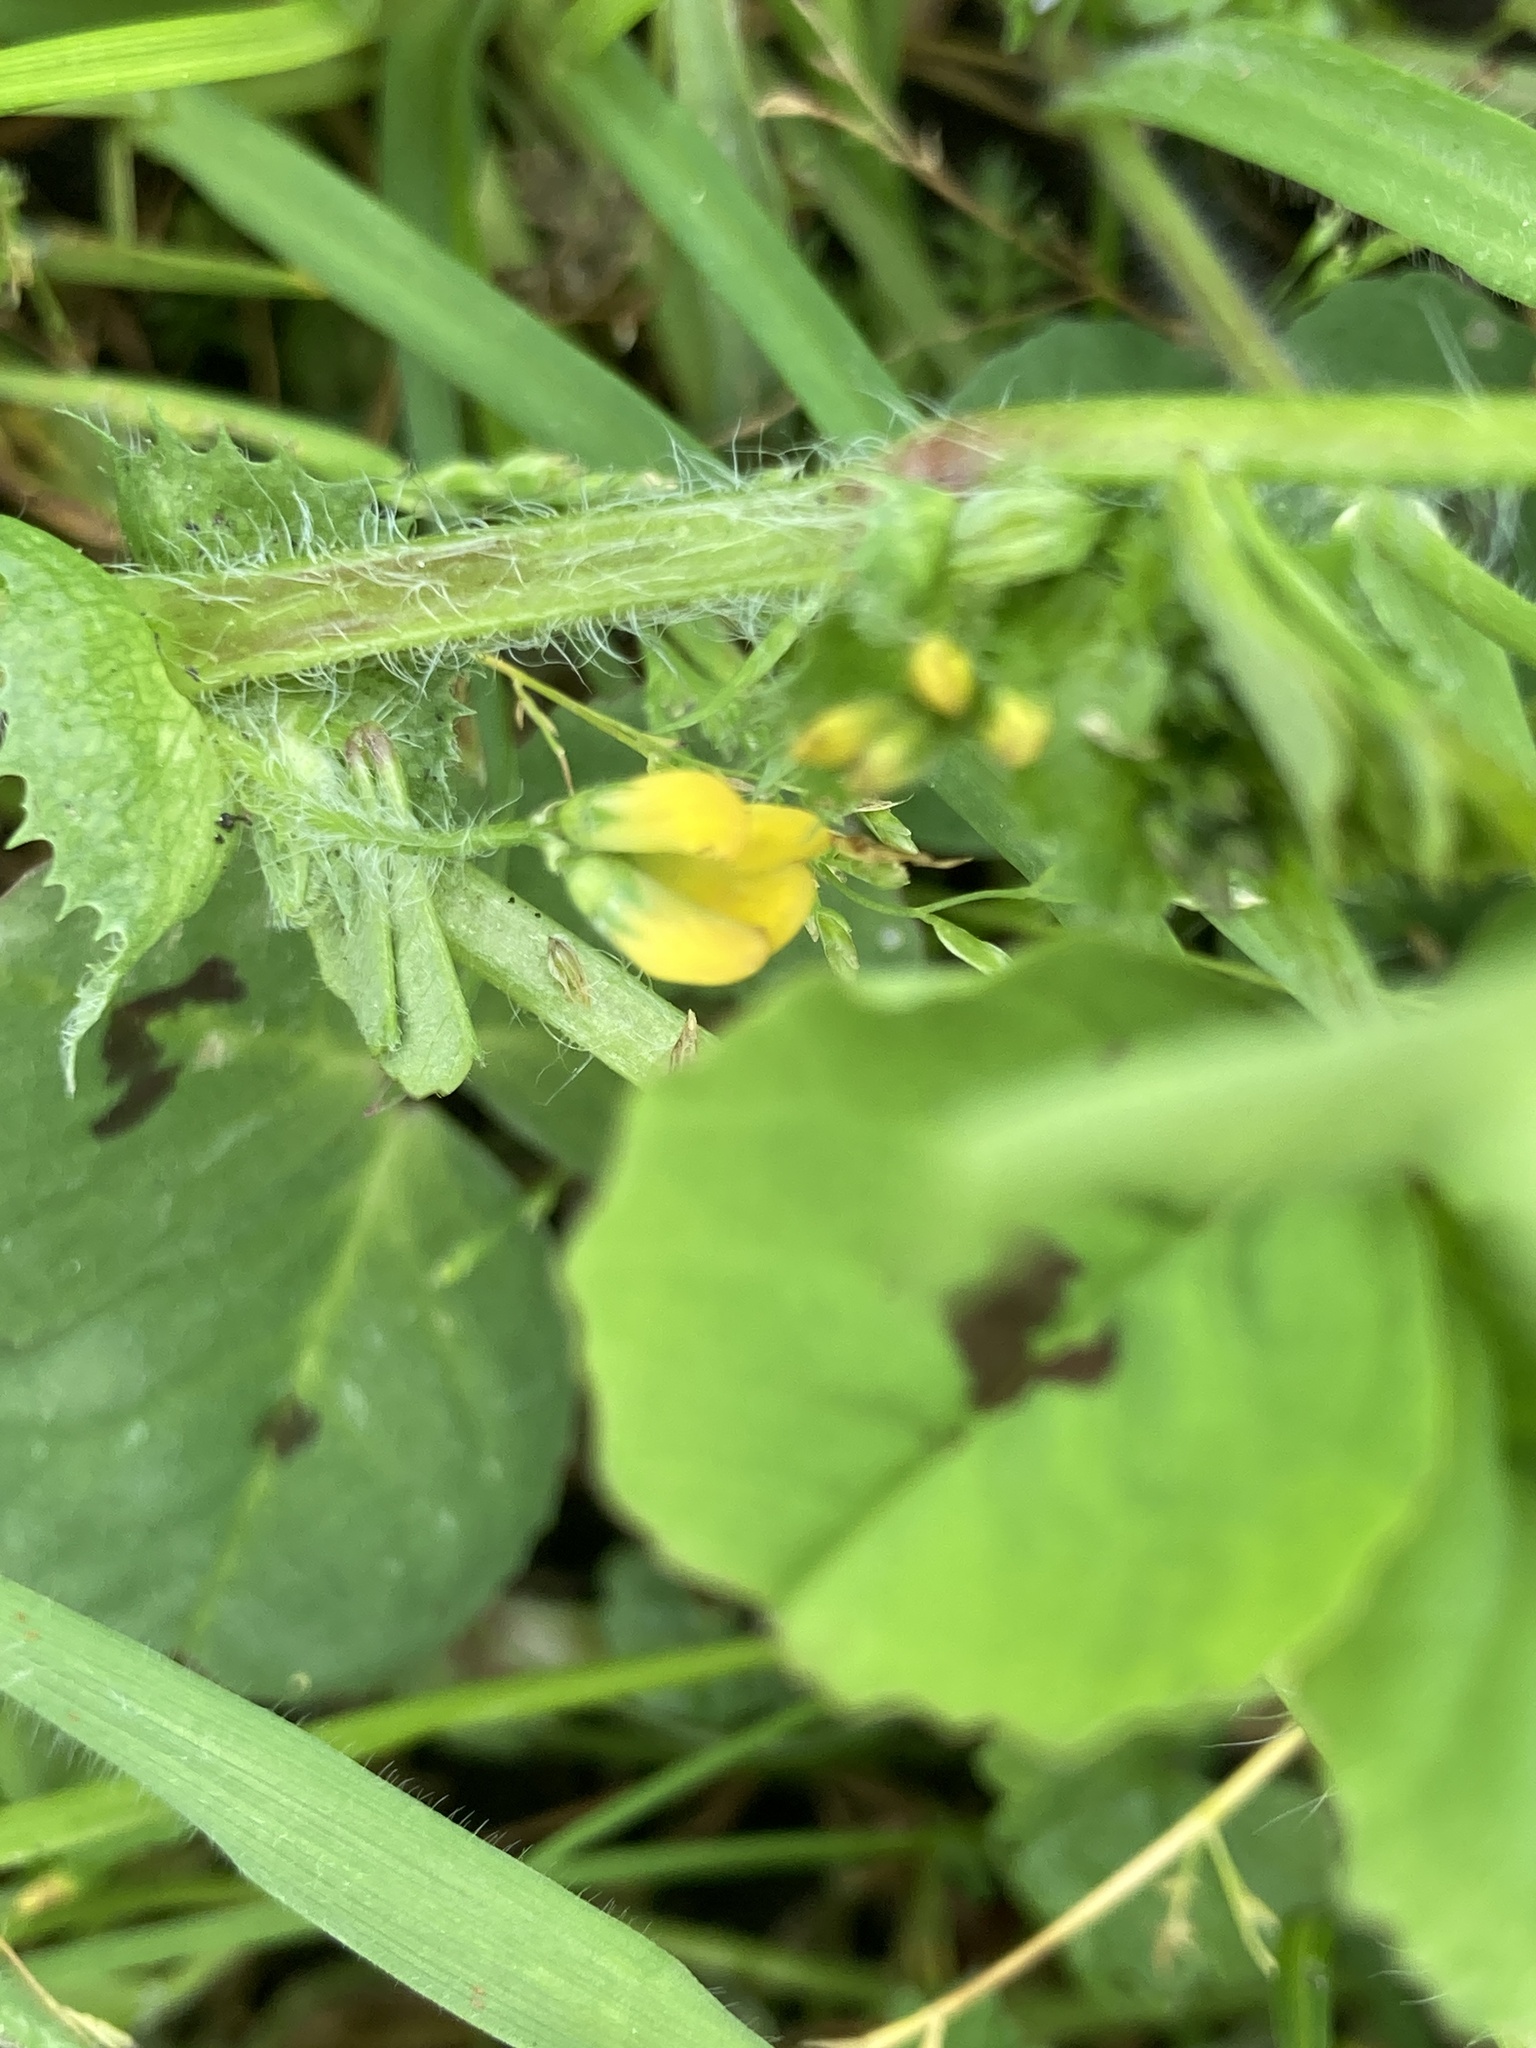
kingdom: Plantae
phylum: Tracheophyta
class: Magnoliopsida
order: Fabales
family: Fabaceae
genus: Medicago
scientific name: Medicago arabica
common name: Spotted medick
